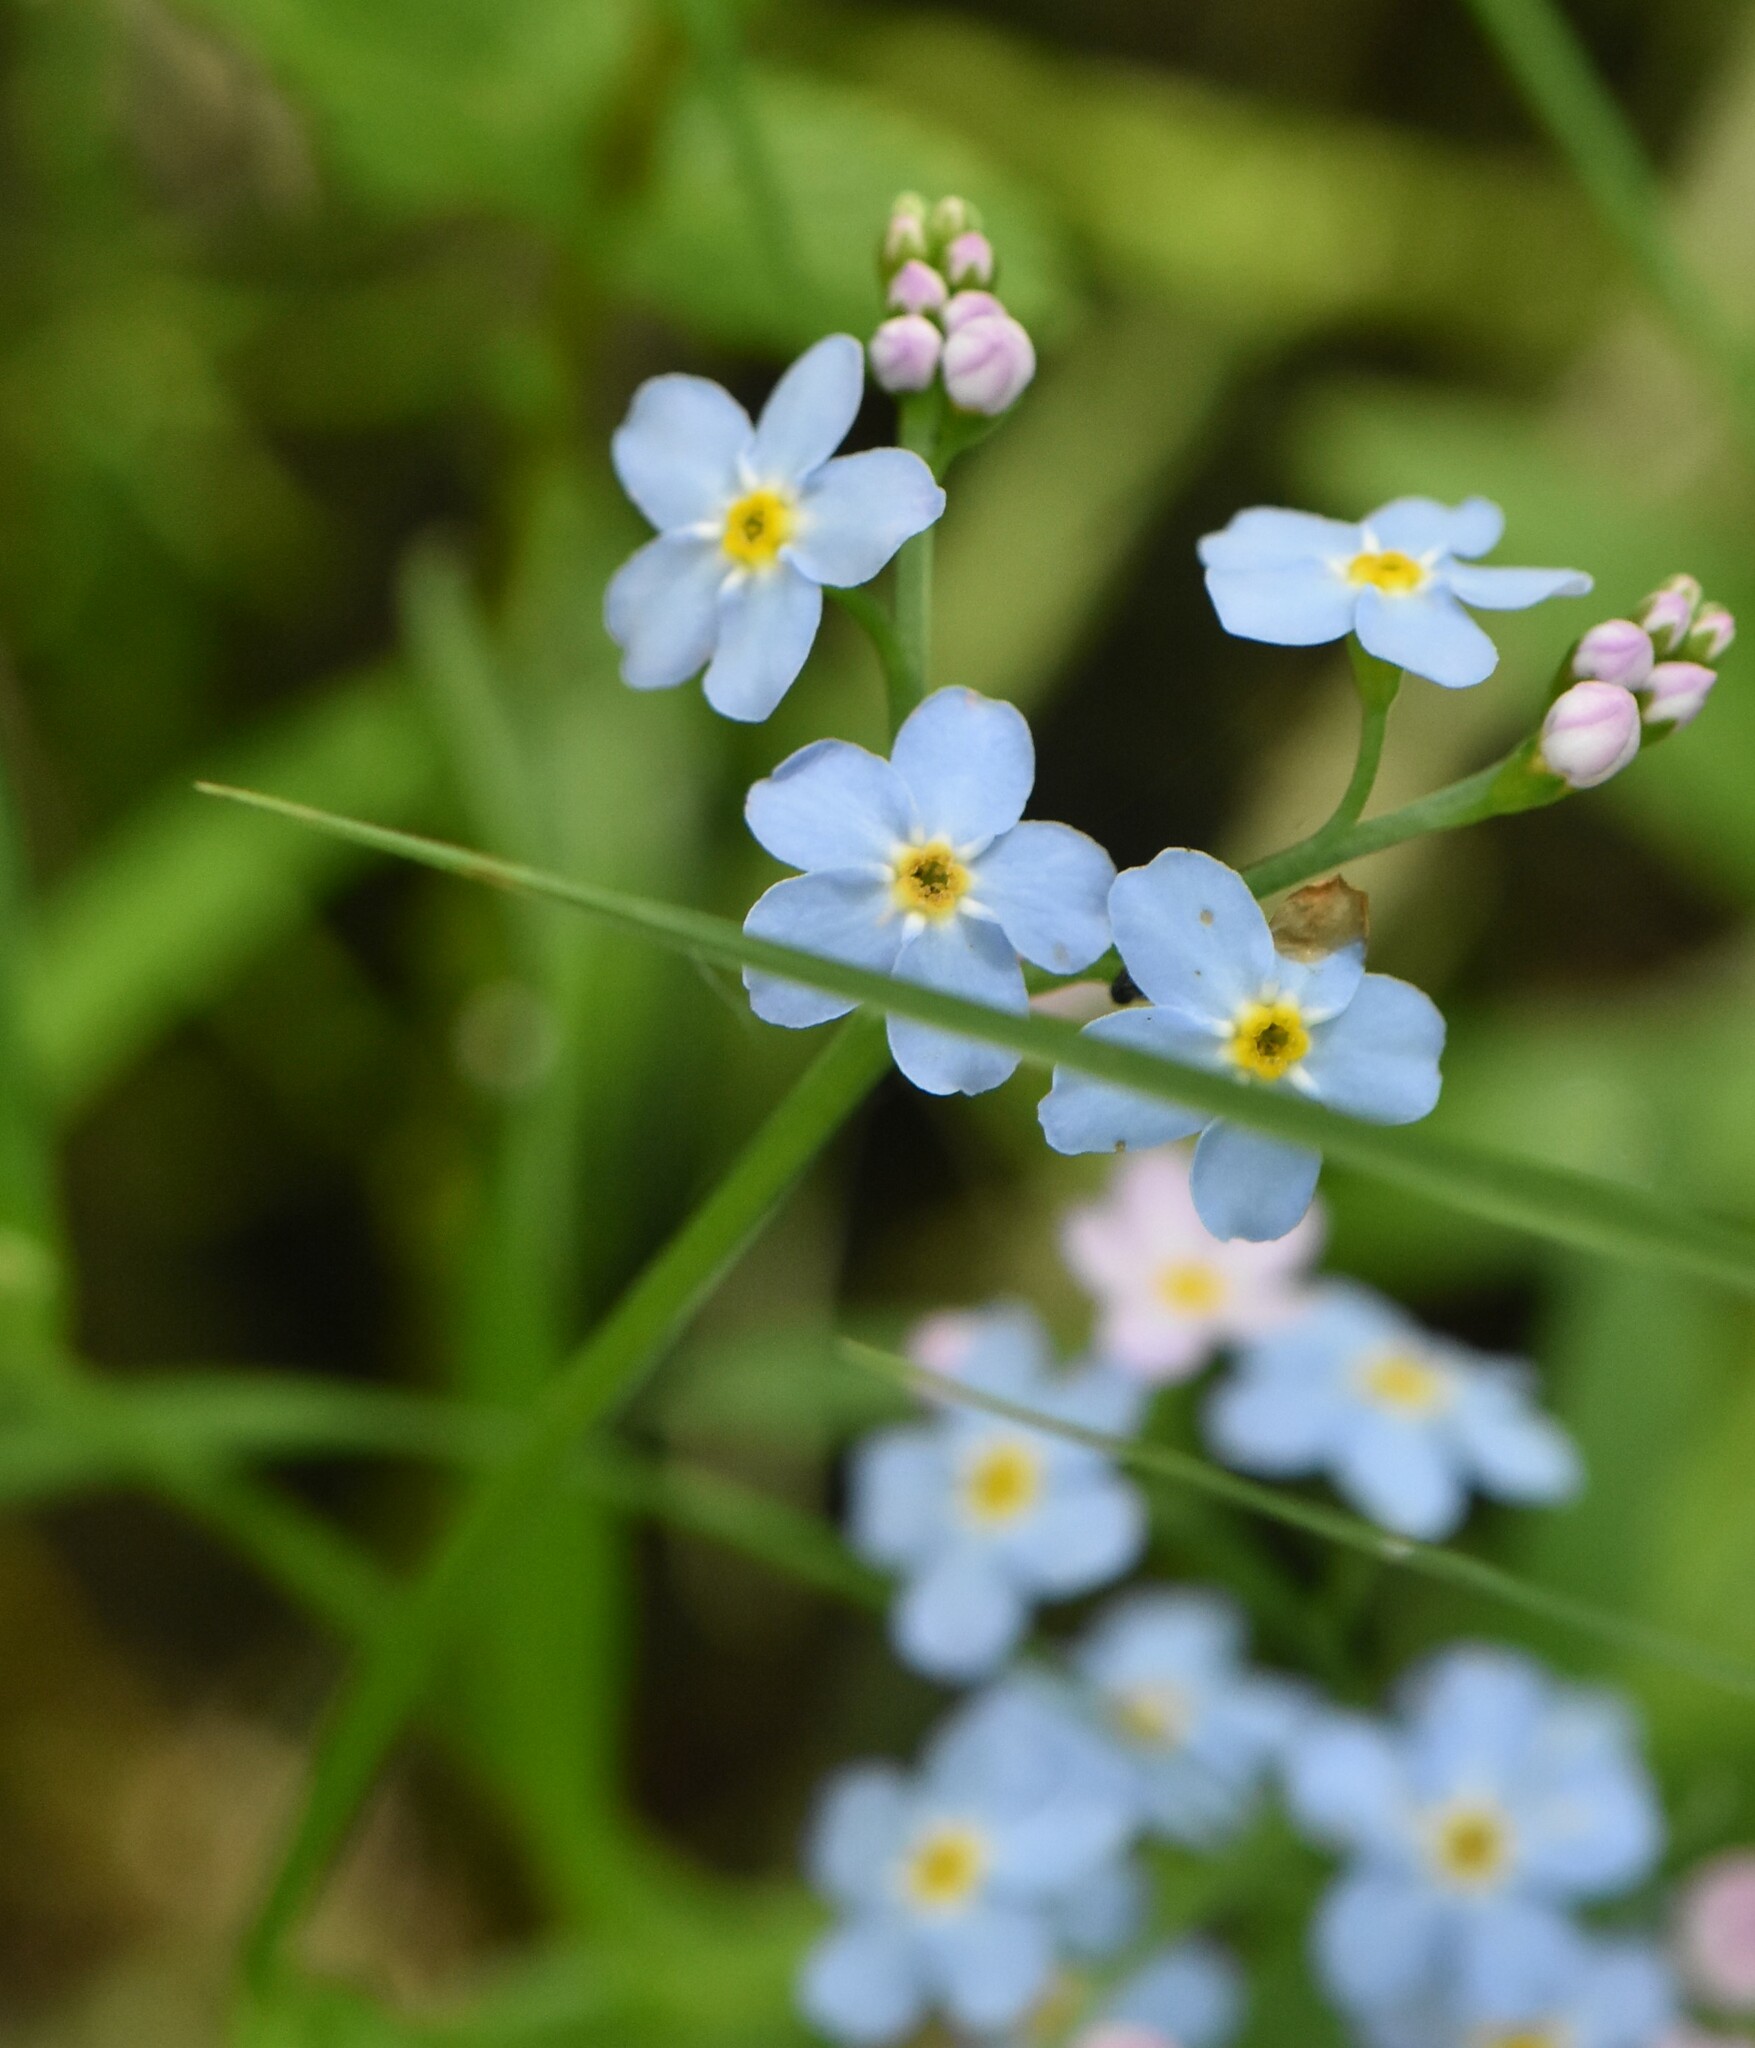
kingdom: Plantae
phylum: Tracheophyta
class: Magnoliopsida
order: Boraginales
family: Boraginaceae
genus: Myosotis
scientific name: Myosotis scorpioides
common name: Water forget-me-not
